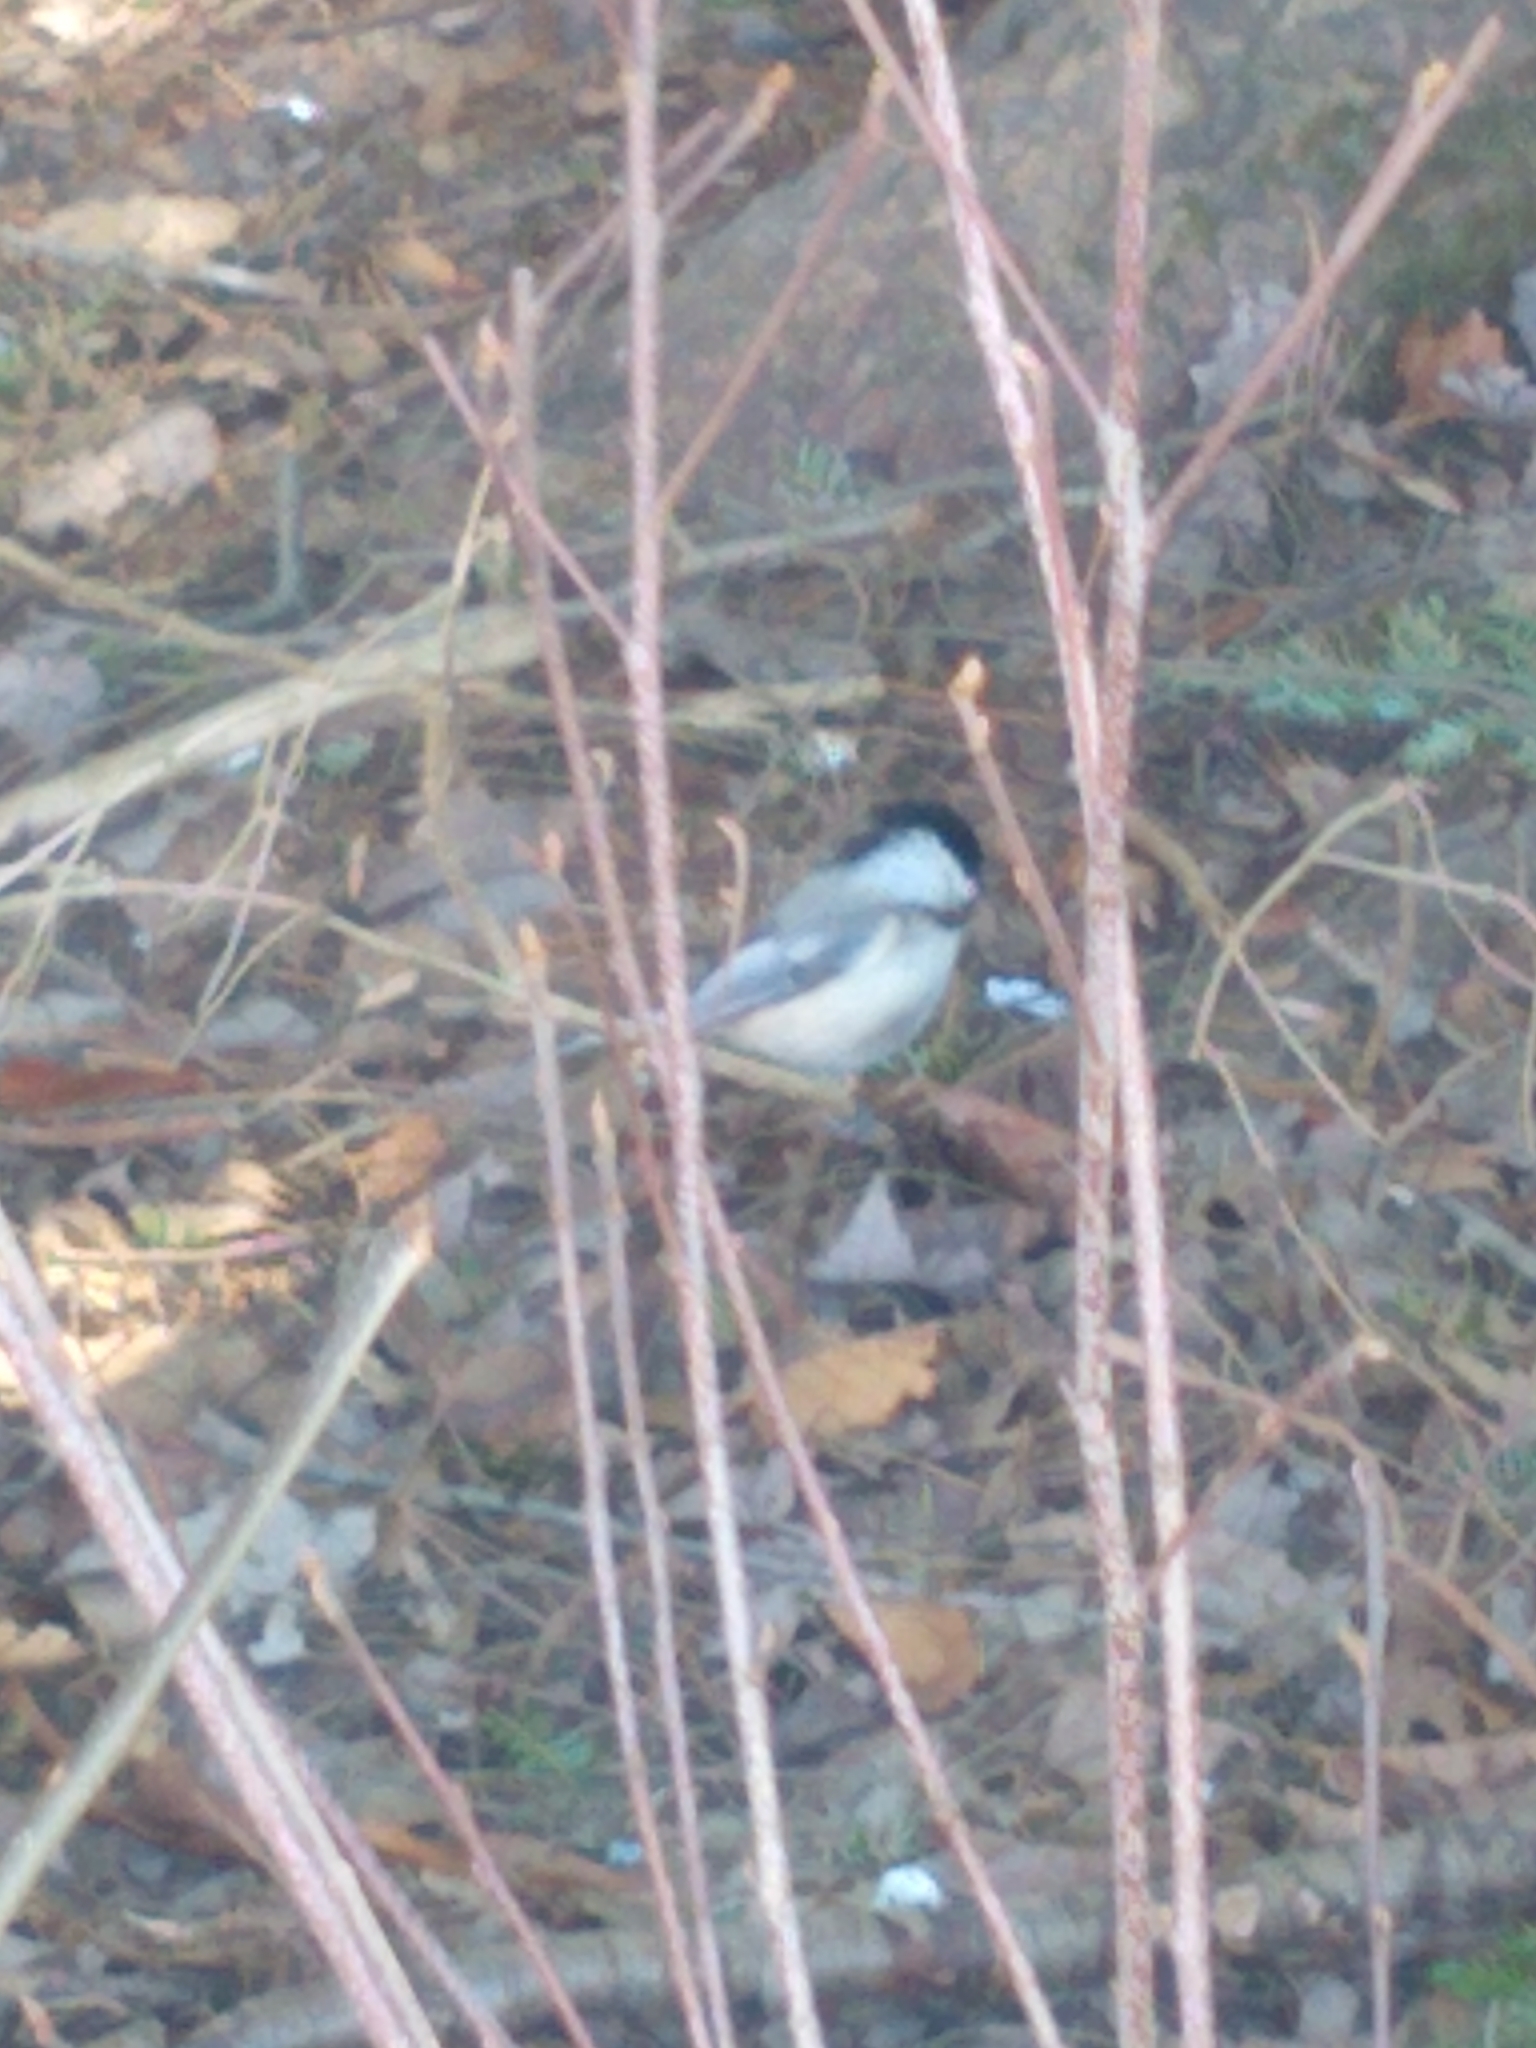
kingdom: Animalia
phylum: Chordata
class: Aves
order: Passeriformes
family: Paridae
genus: Poecile
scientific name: Poecile atricapillus
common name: Black-capped chickadee
